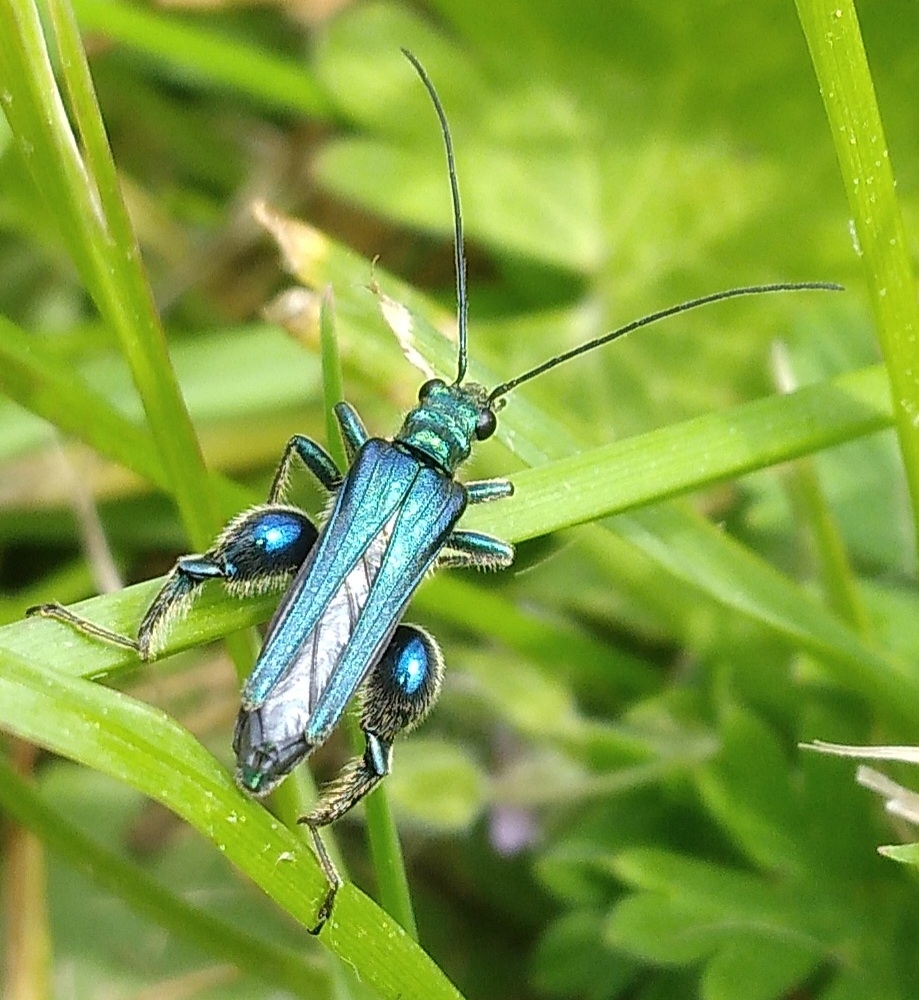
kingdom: Animalia
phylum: Arthropoda
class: Insecta
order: Coleoptera
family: Oedemeridae
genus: Oedemera
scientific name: Oedemera nobilis
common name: Swollen-thighed beetle
